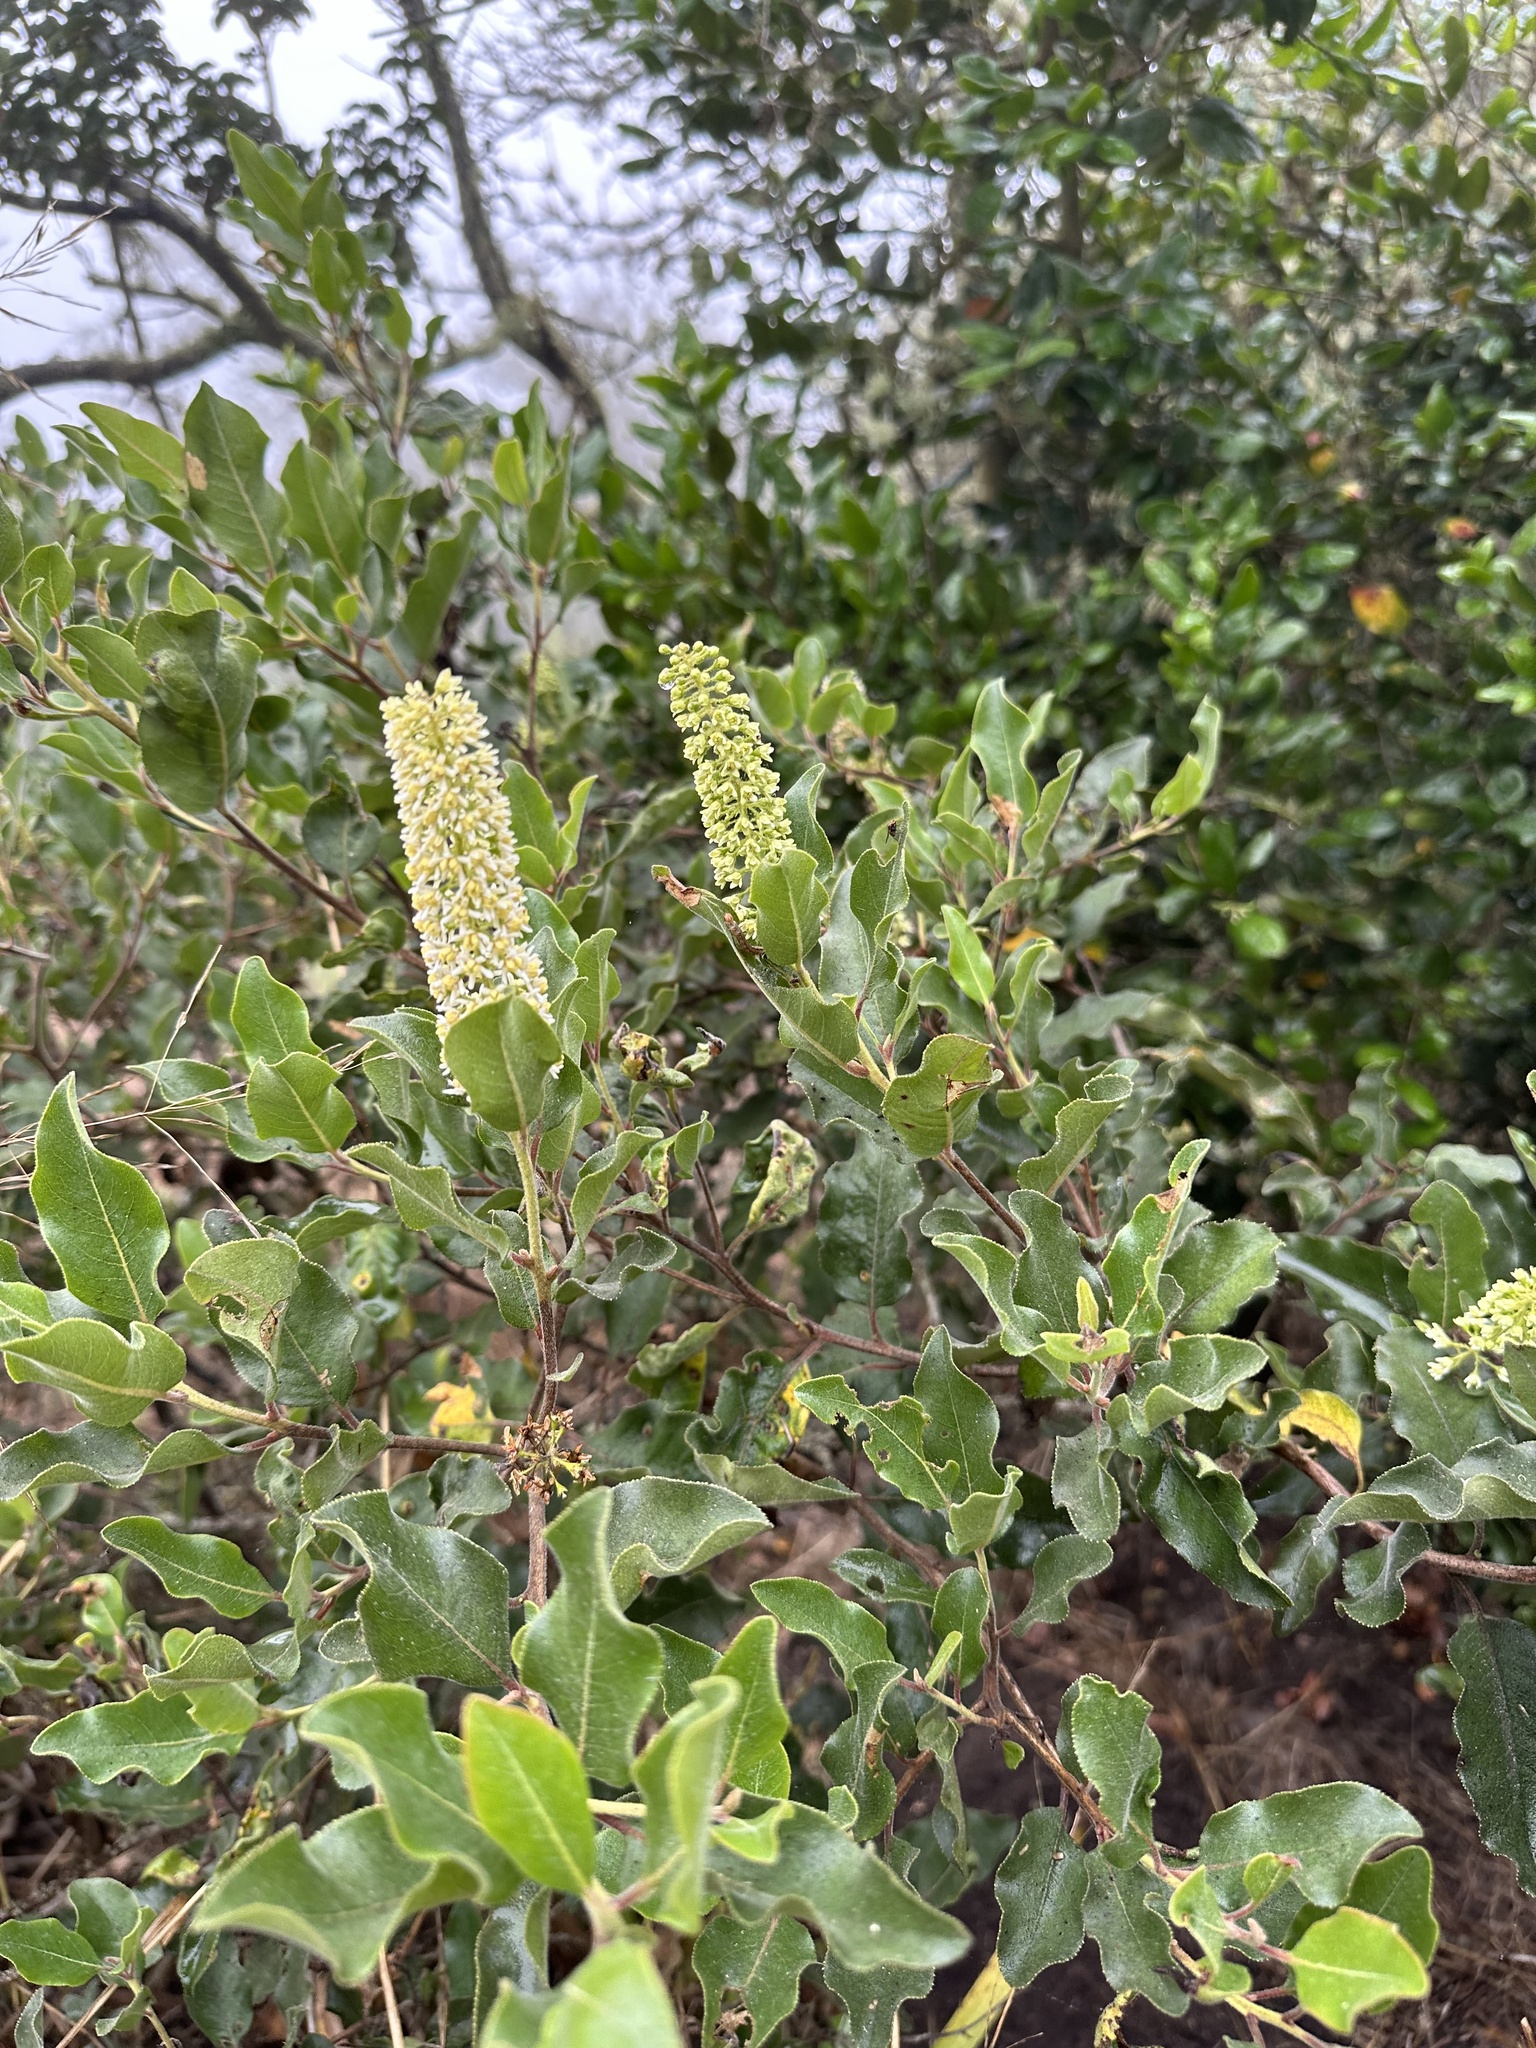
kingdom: Plantae
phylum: Tracheophyta
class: Magnoliopsida
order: Escalloniales
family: Escalloniaceae
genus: Escallonia
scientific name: Escallonia pulverulenta
